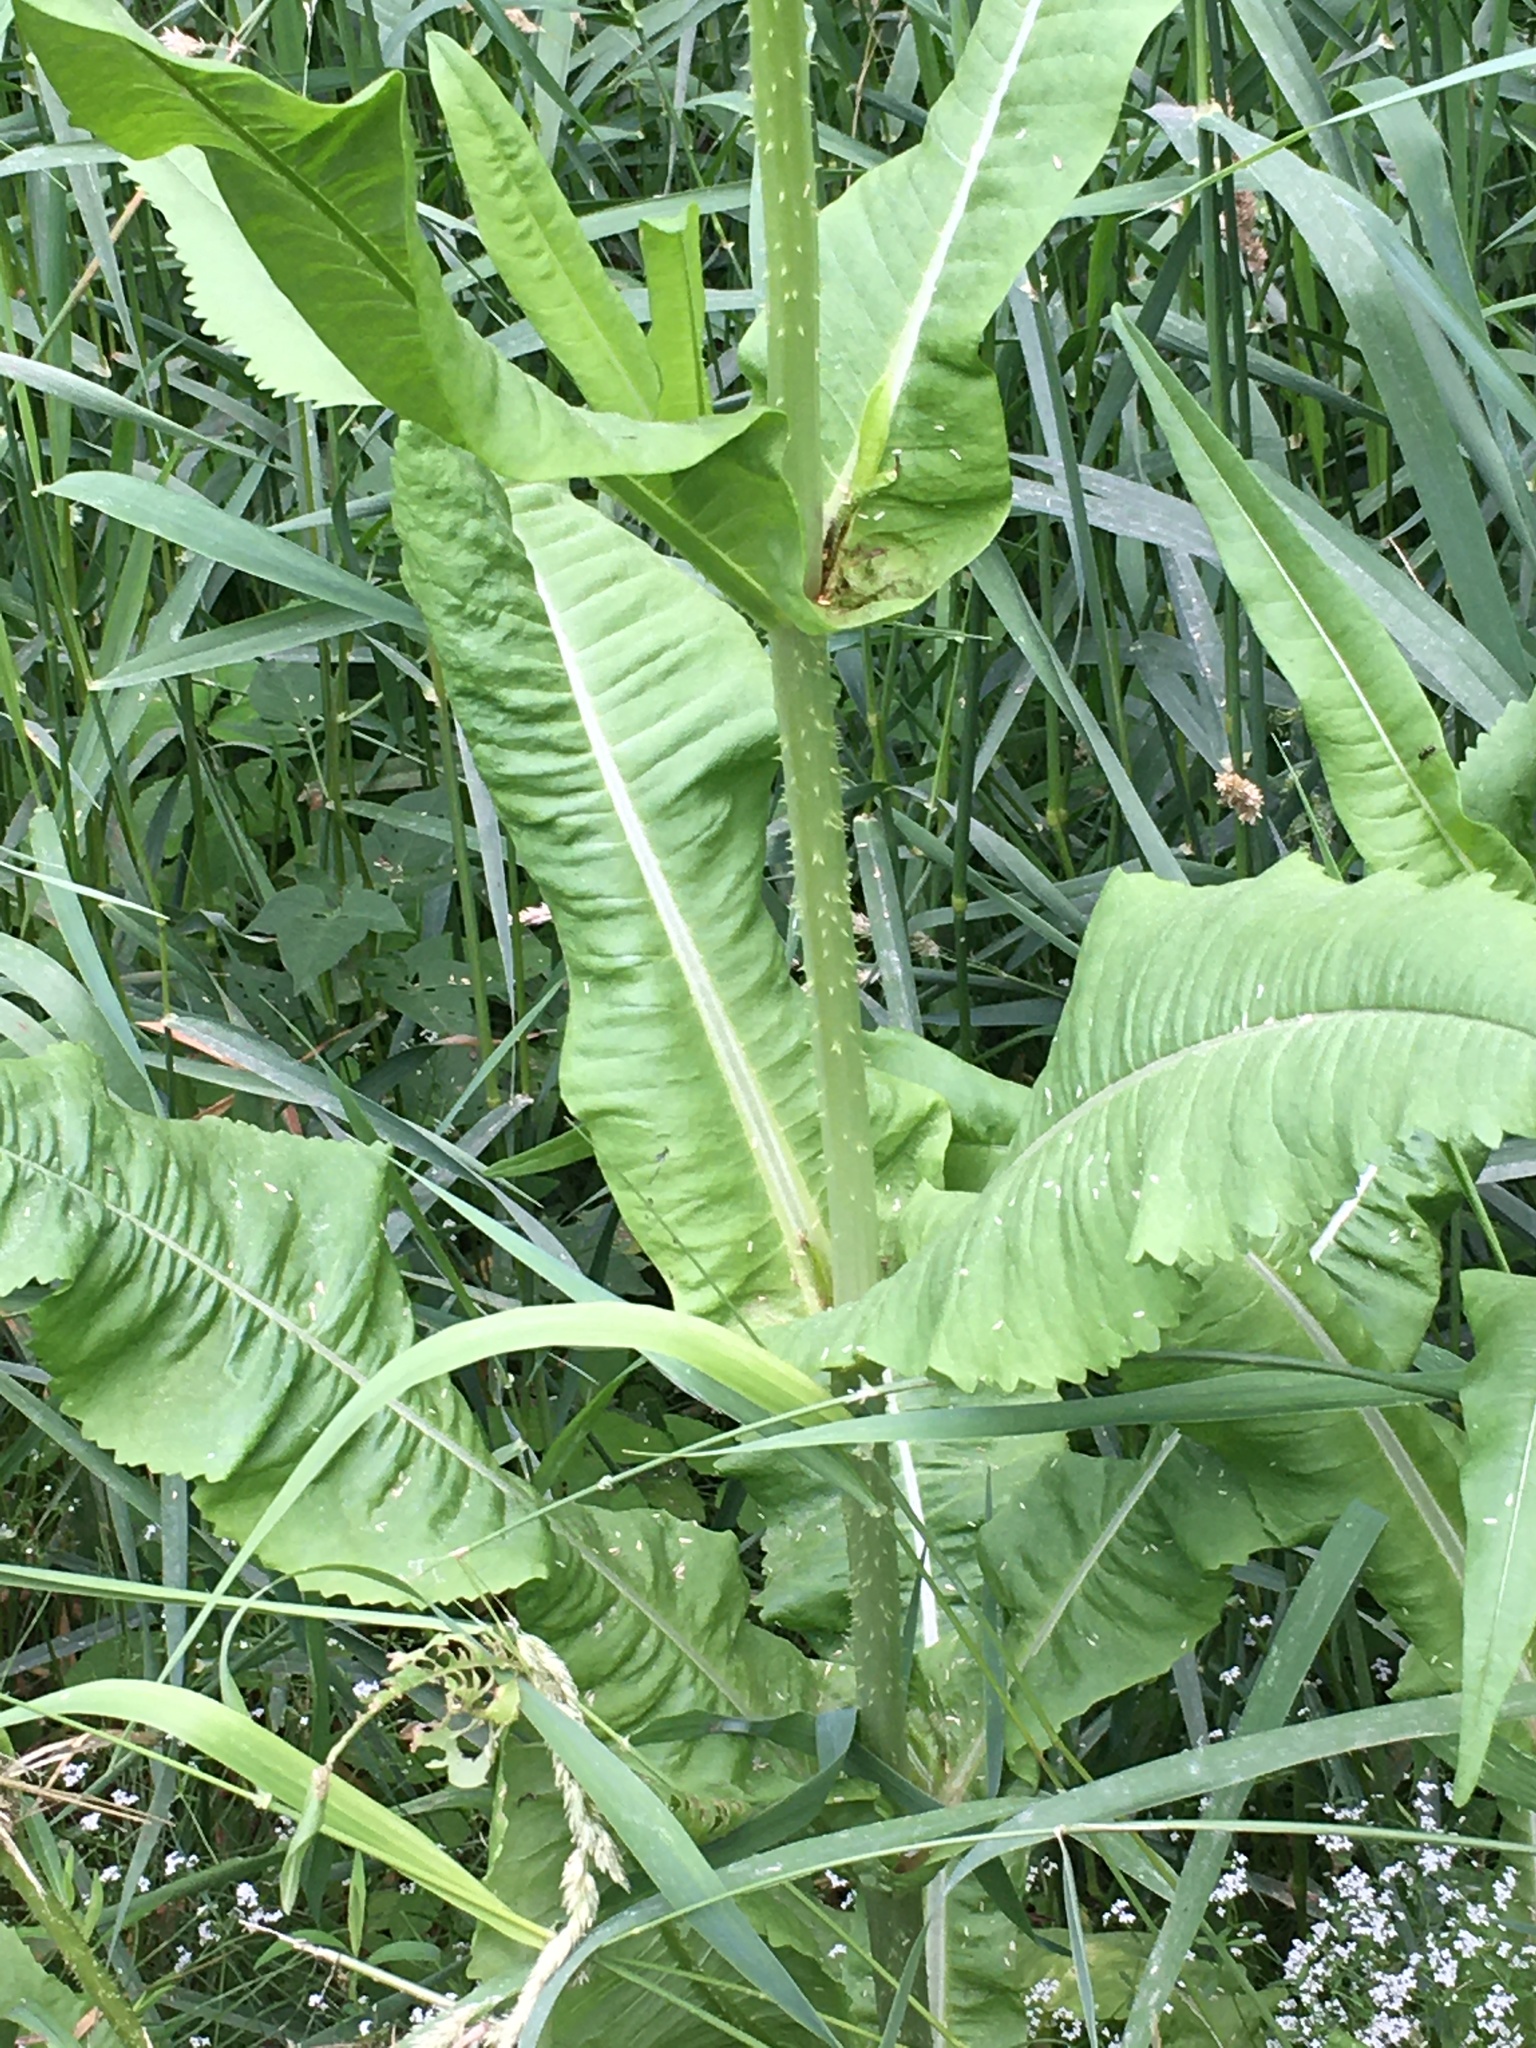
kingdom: Plantae
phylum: Tracheophyta
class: Magnoliopsida
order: Dipsacales
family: Caprifoliaceae
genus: Dipsacus
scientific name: Dipsacus fullonum
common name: Teasel
